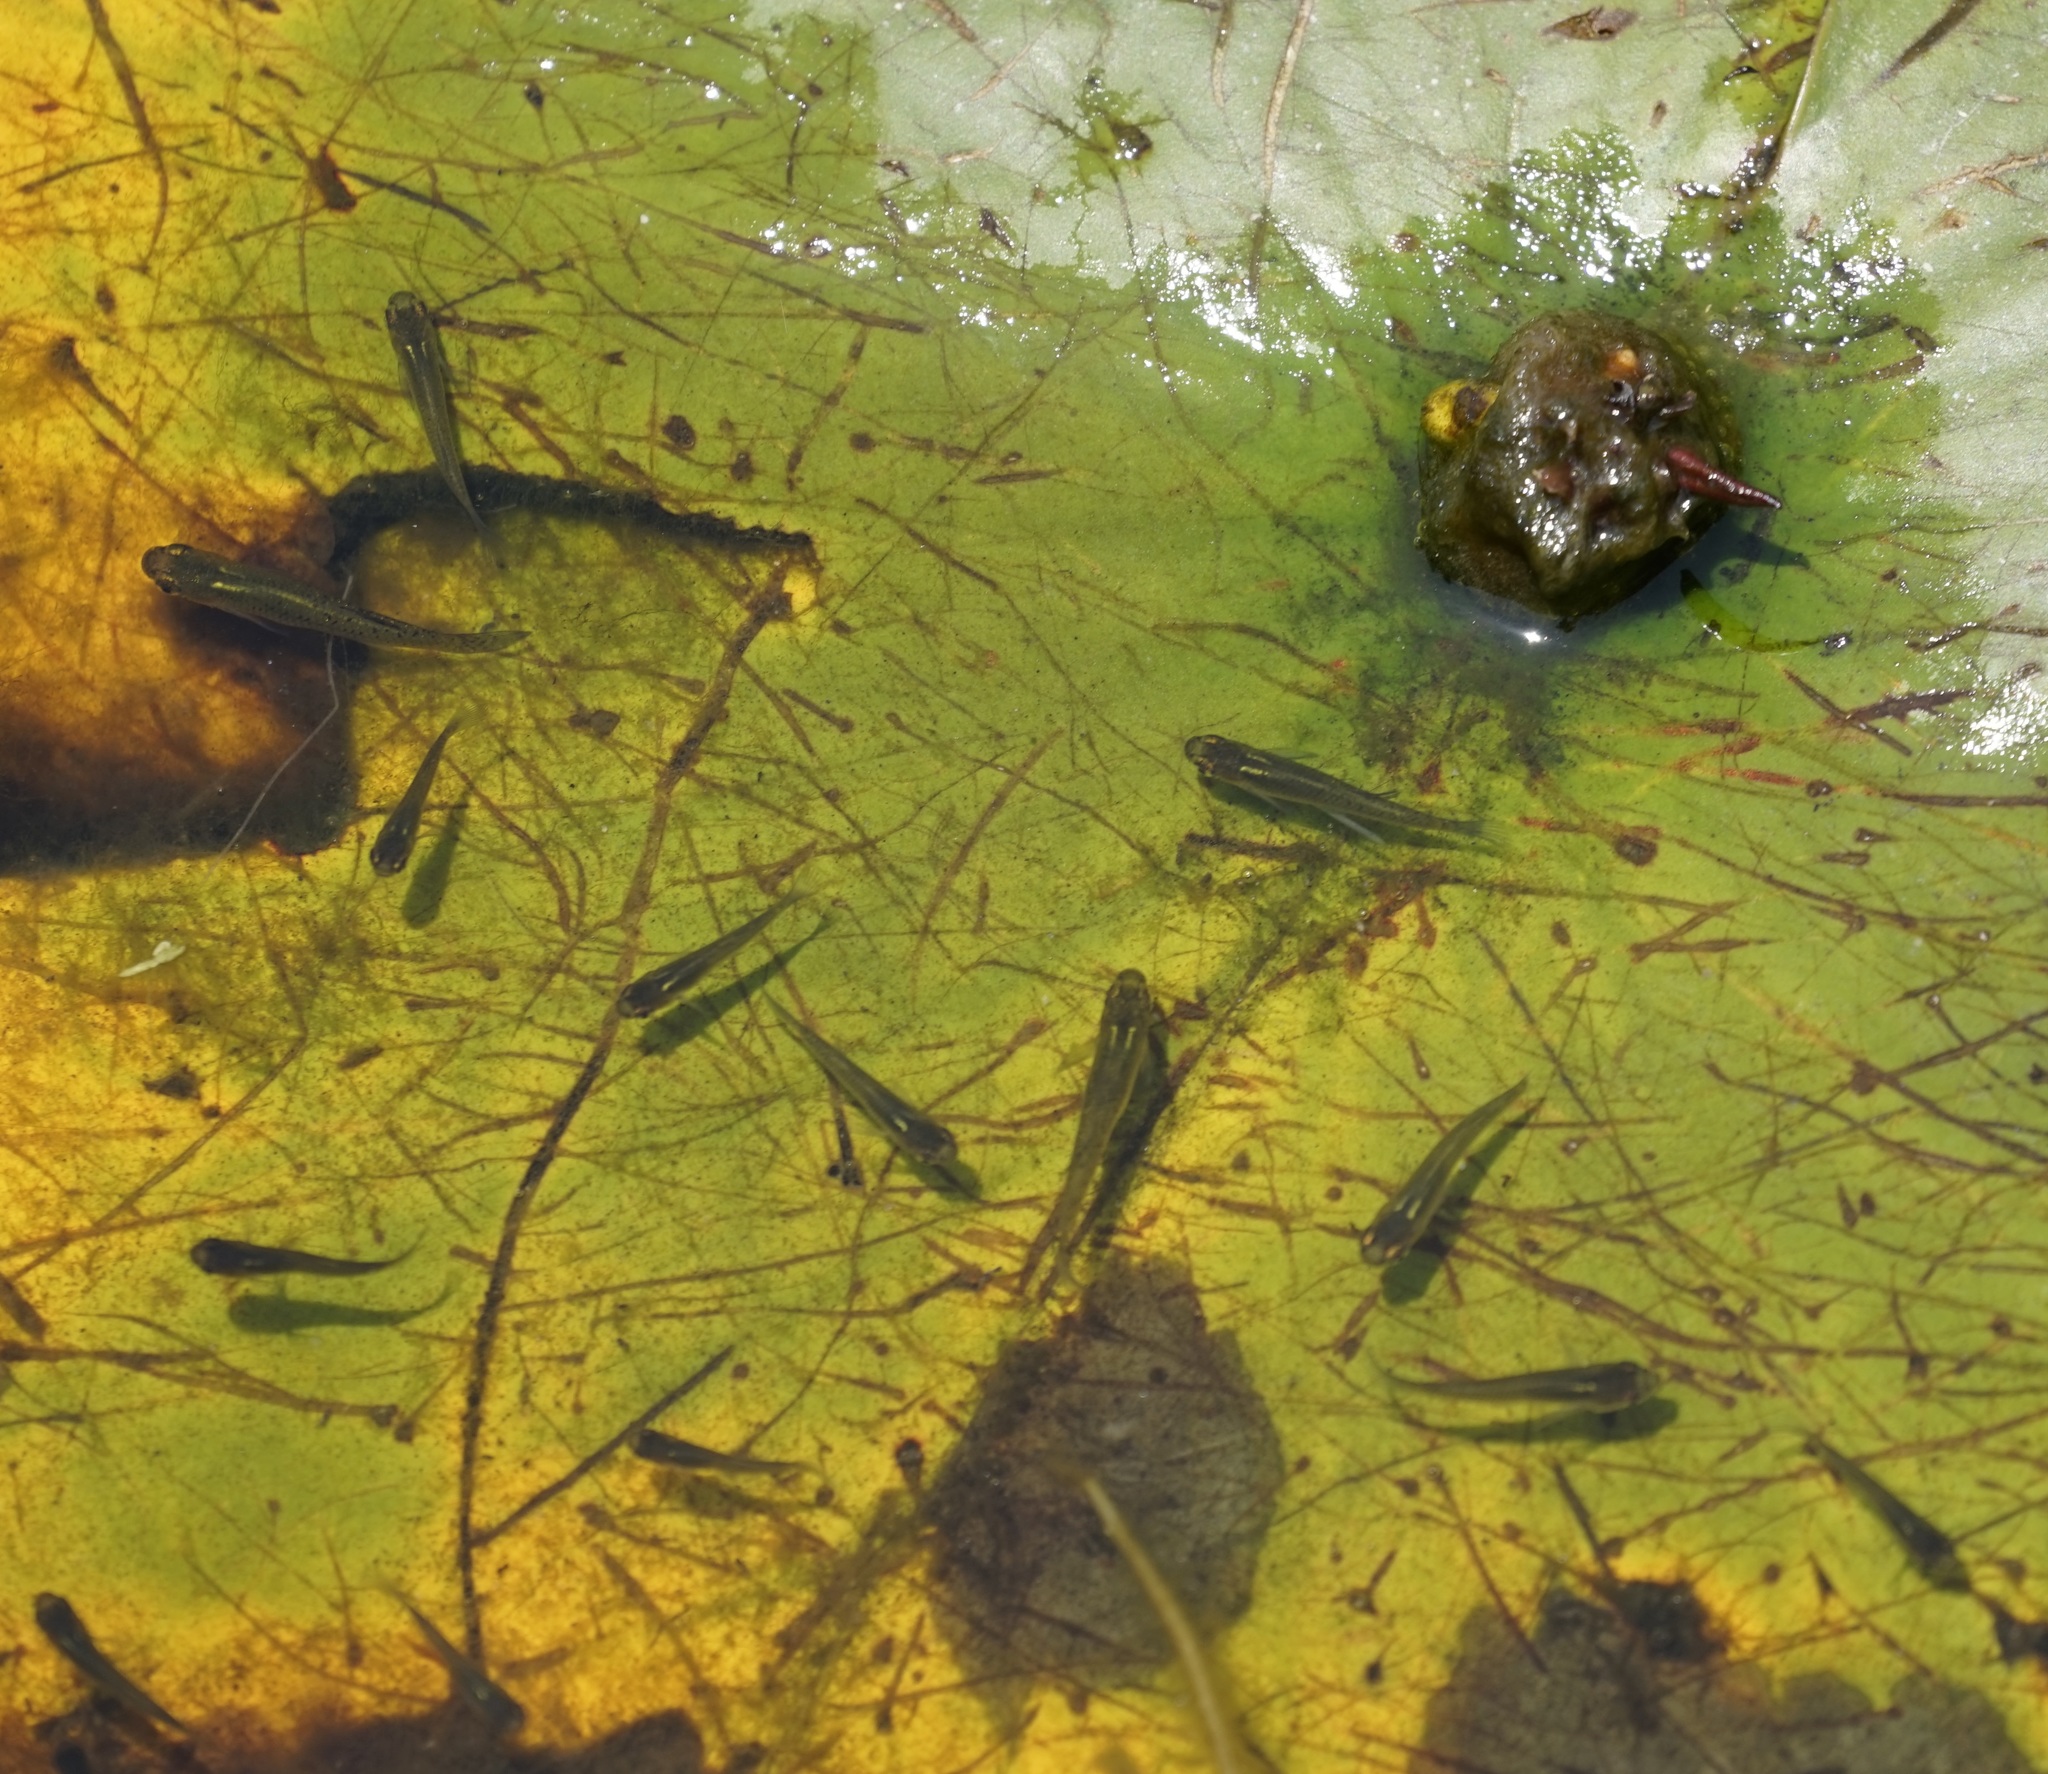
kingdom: Animalia
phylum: Chordata
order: Cyprinodontiformes
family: Poeciliidae
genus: Gambusia
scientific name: Gambusia holbrooki
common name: Eastern mosquitofish
